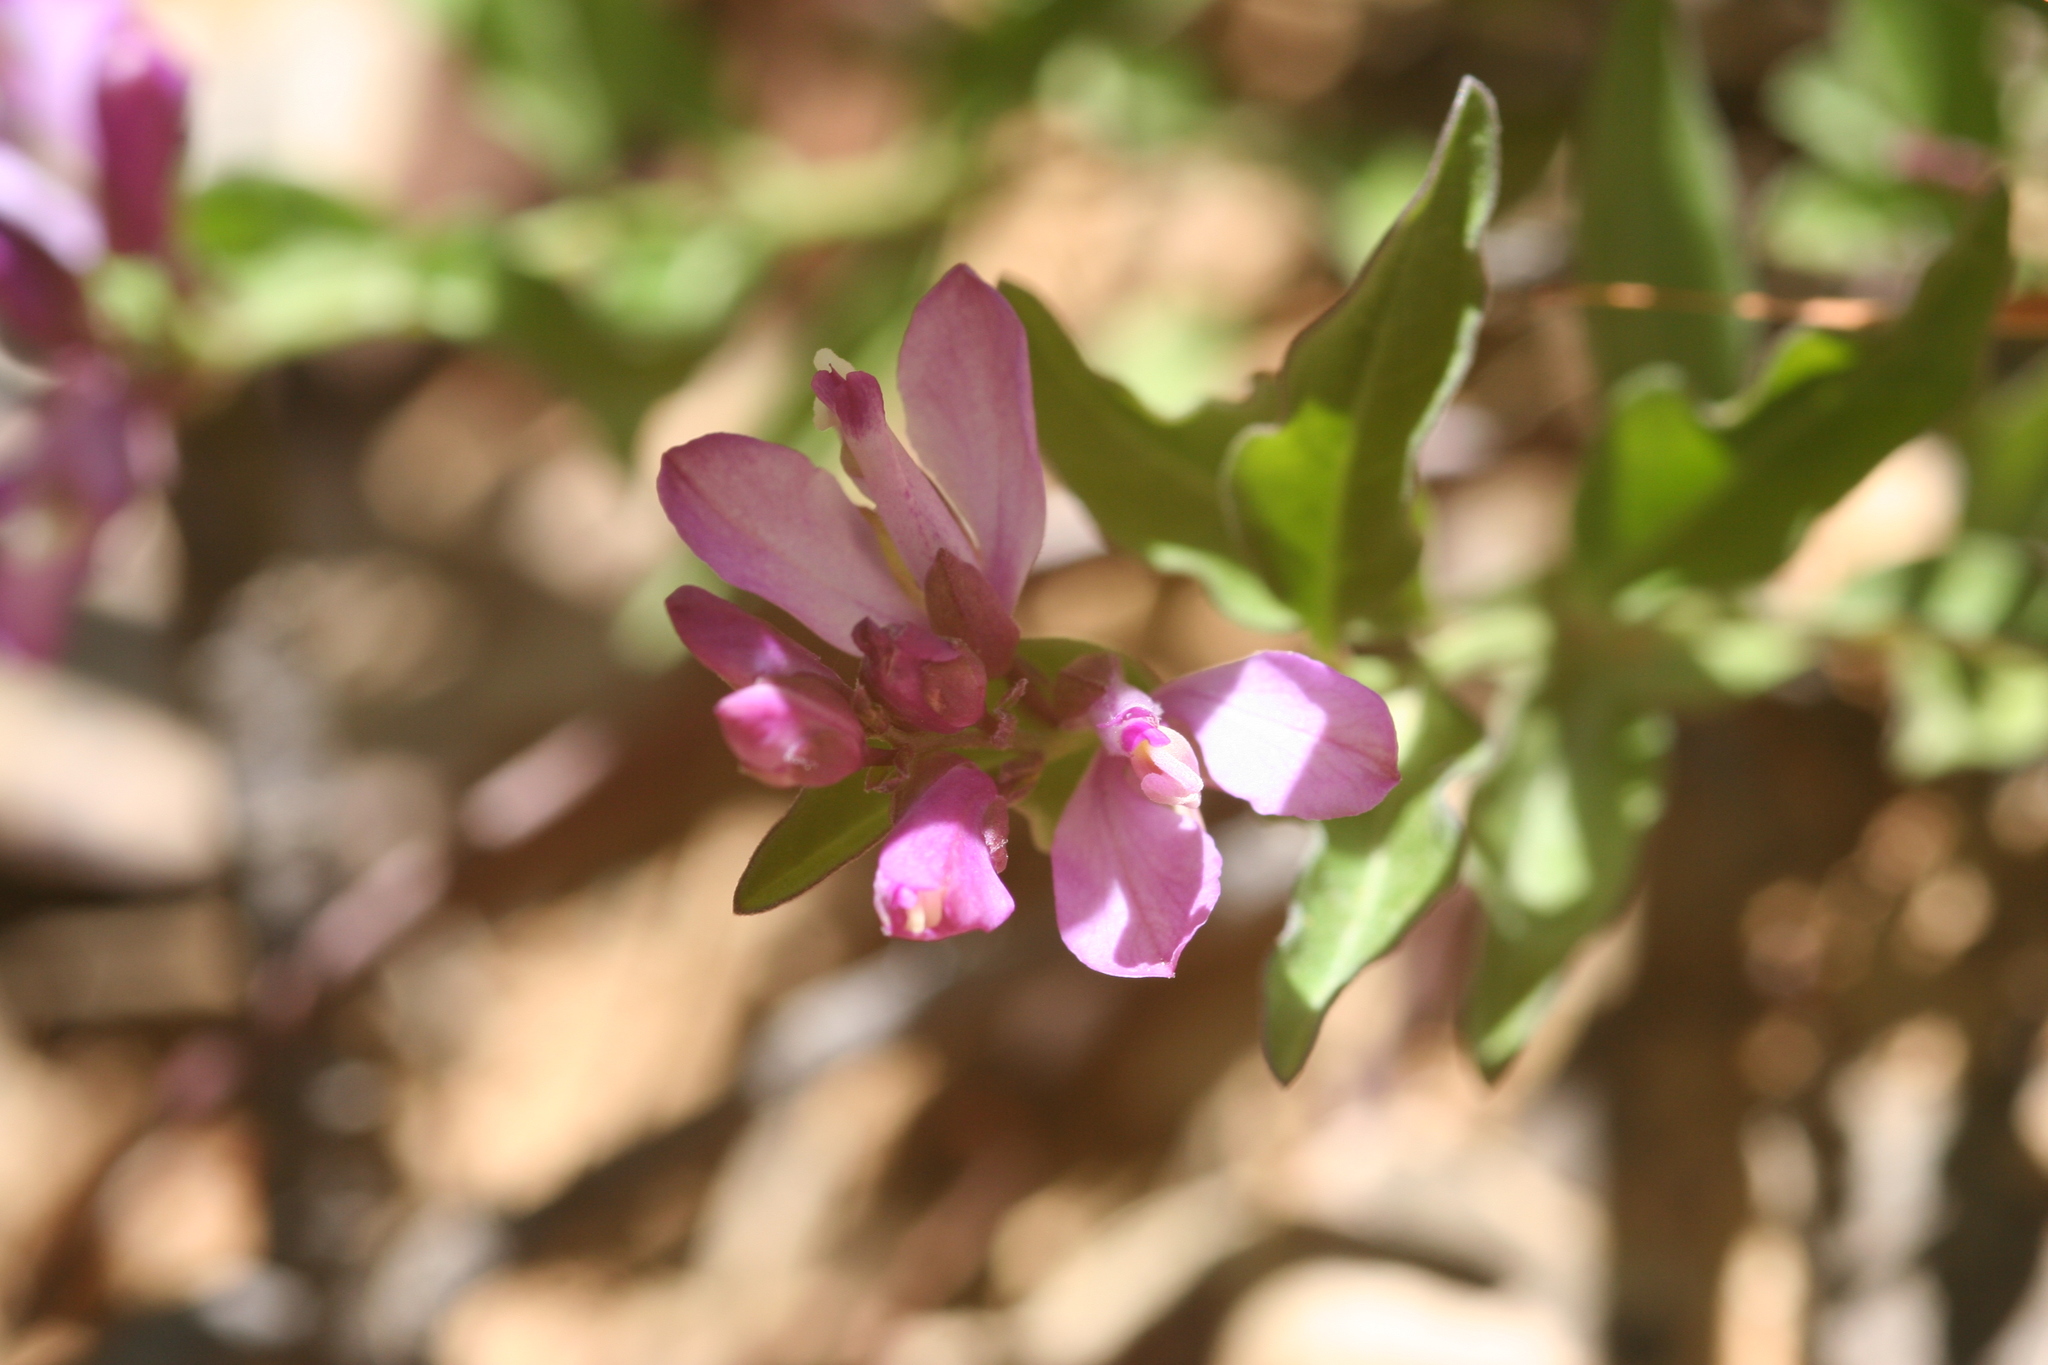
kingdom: Plantae
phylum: Tracheophyta
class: Magnoliopsida
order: Fabales
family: Polygalaceae
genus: Rhinotropis
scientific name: Rhinotropis californica
